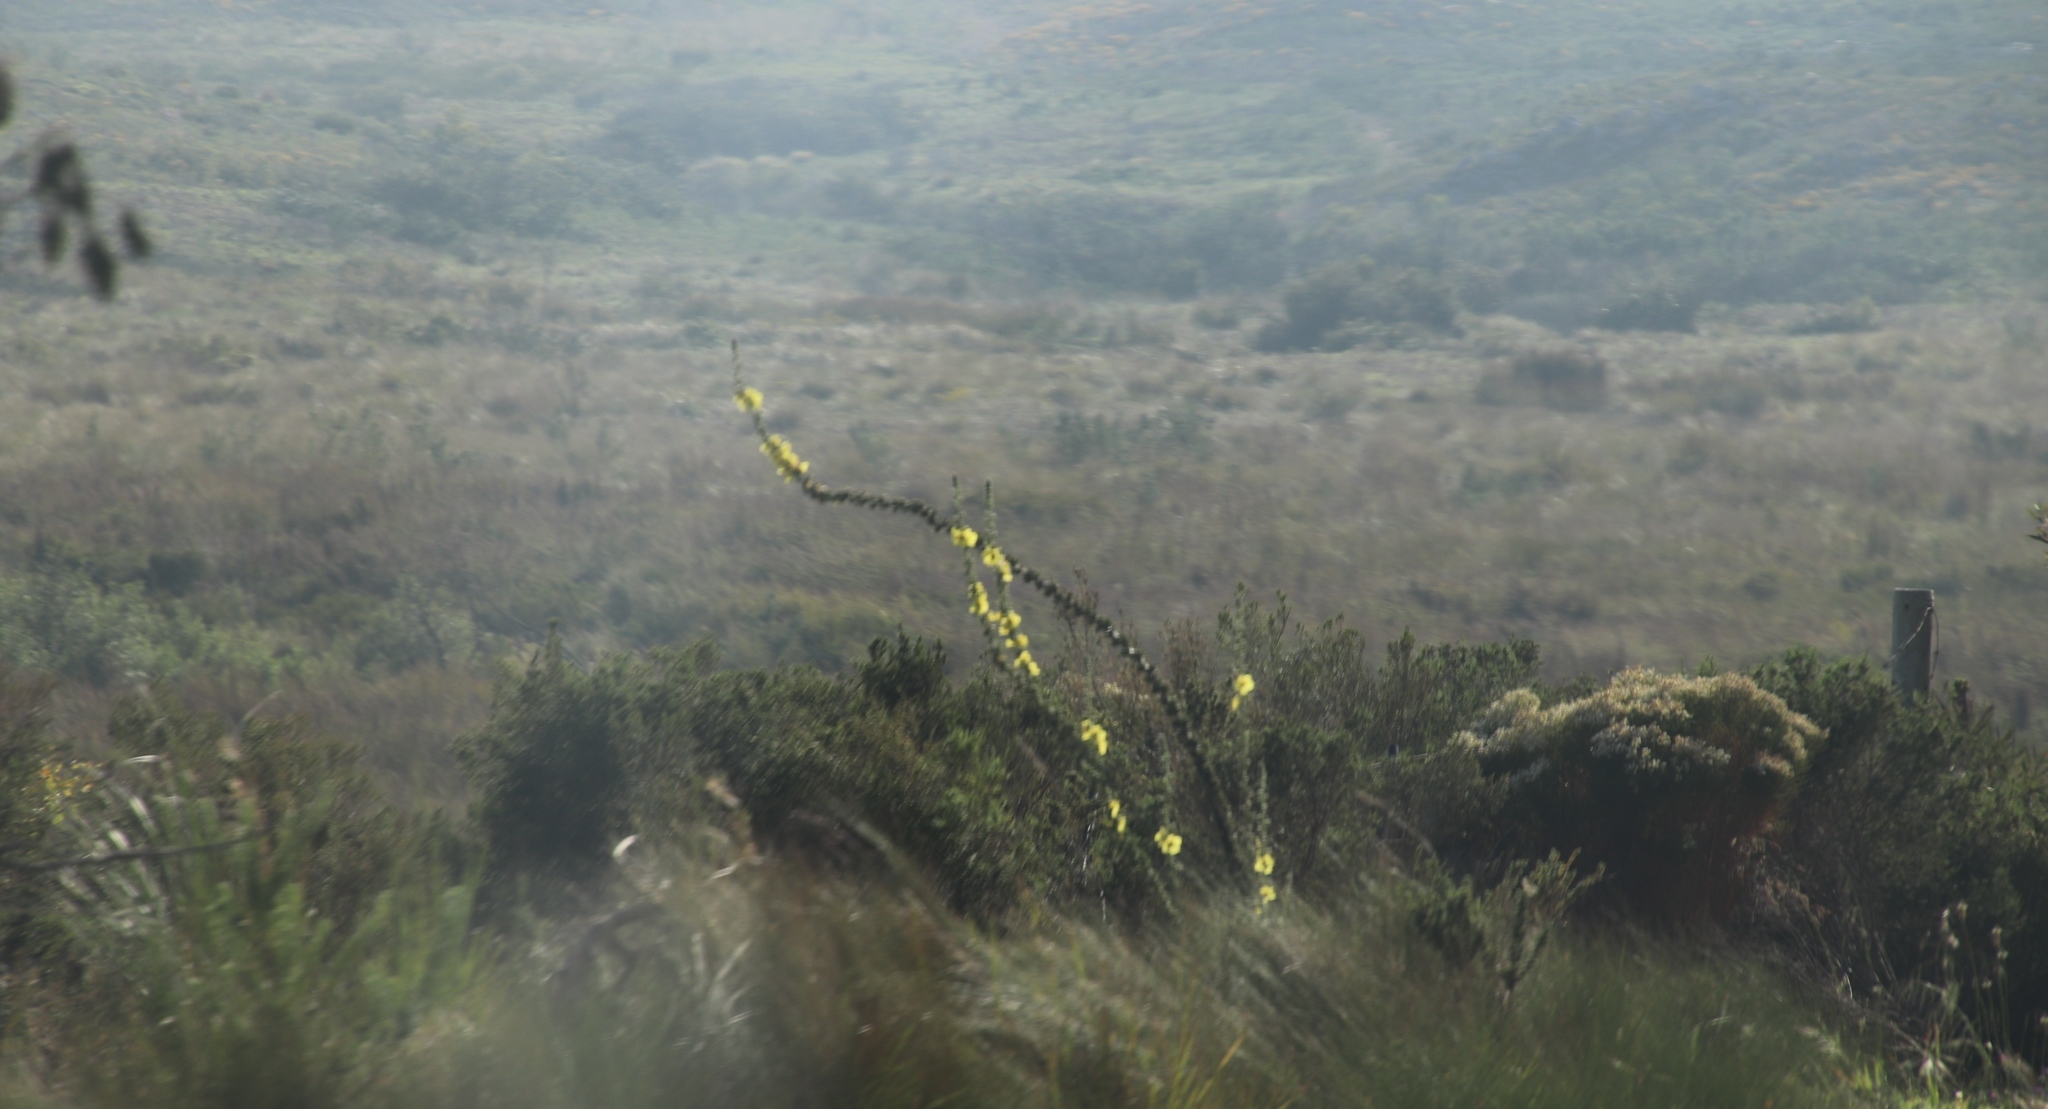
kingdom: Plantae
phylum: Tracheophyta
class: Magnoliopsida
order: Lamiales
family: Scrophulariaceae
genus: Verbascum
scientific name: Verbascum virgatum
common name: Twiggy mullein
